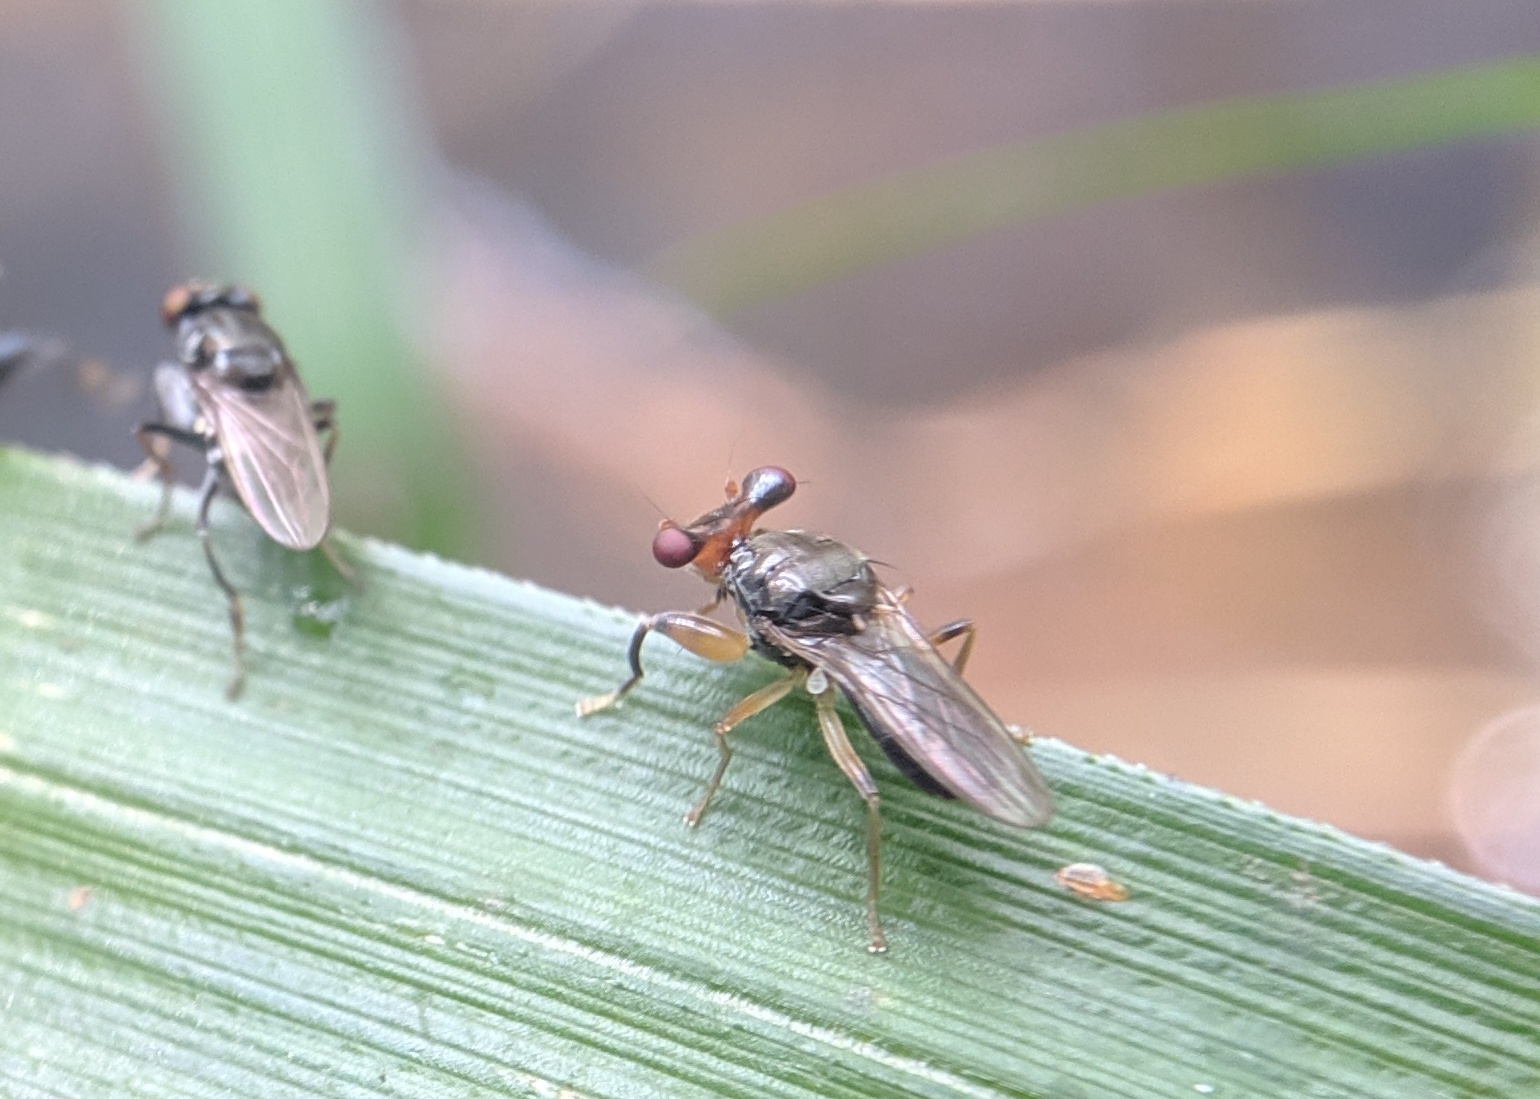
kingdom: Animalia
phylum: Arthropoda
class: Insecta
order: Diptera
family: Diopsidae
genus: Sphyracephala
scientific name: Sphyracephala hearseiana
